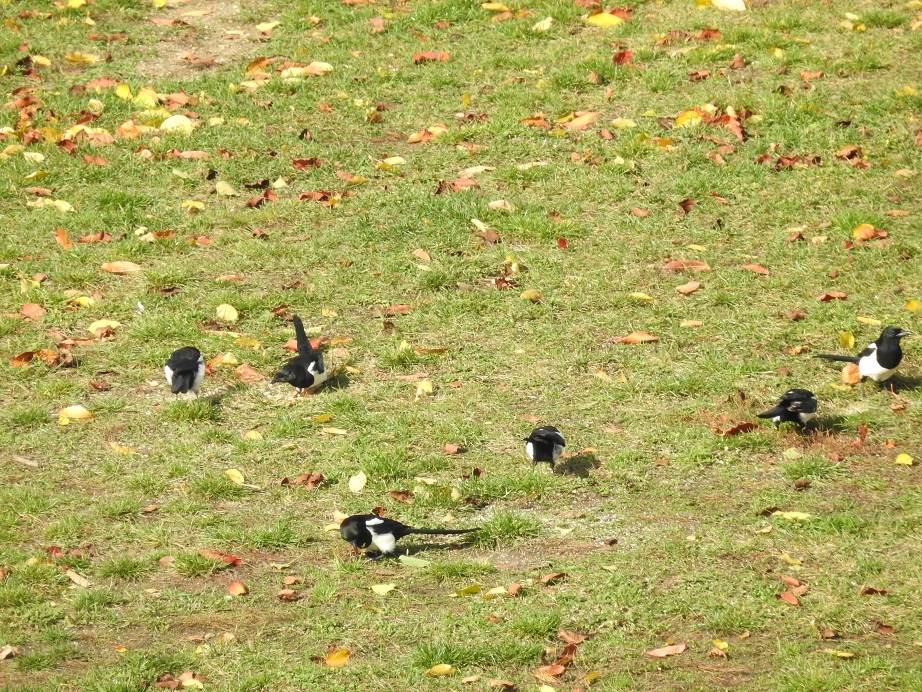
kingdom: Animalia
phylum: Chordata
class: Aves
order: Passeriformes
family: Corvidae
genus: Pica
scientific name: Pica pica
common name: Eurasian magpie
